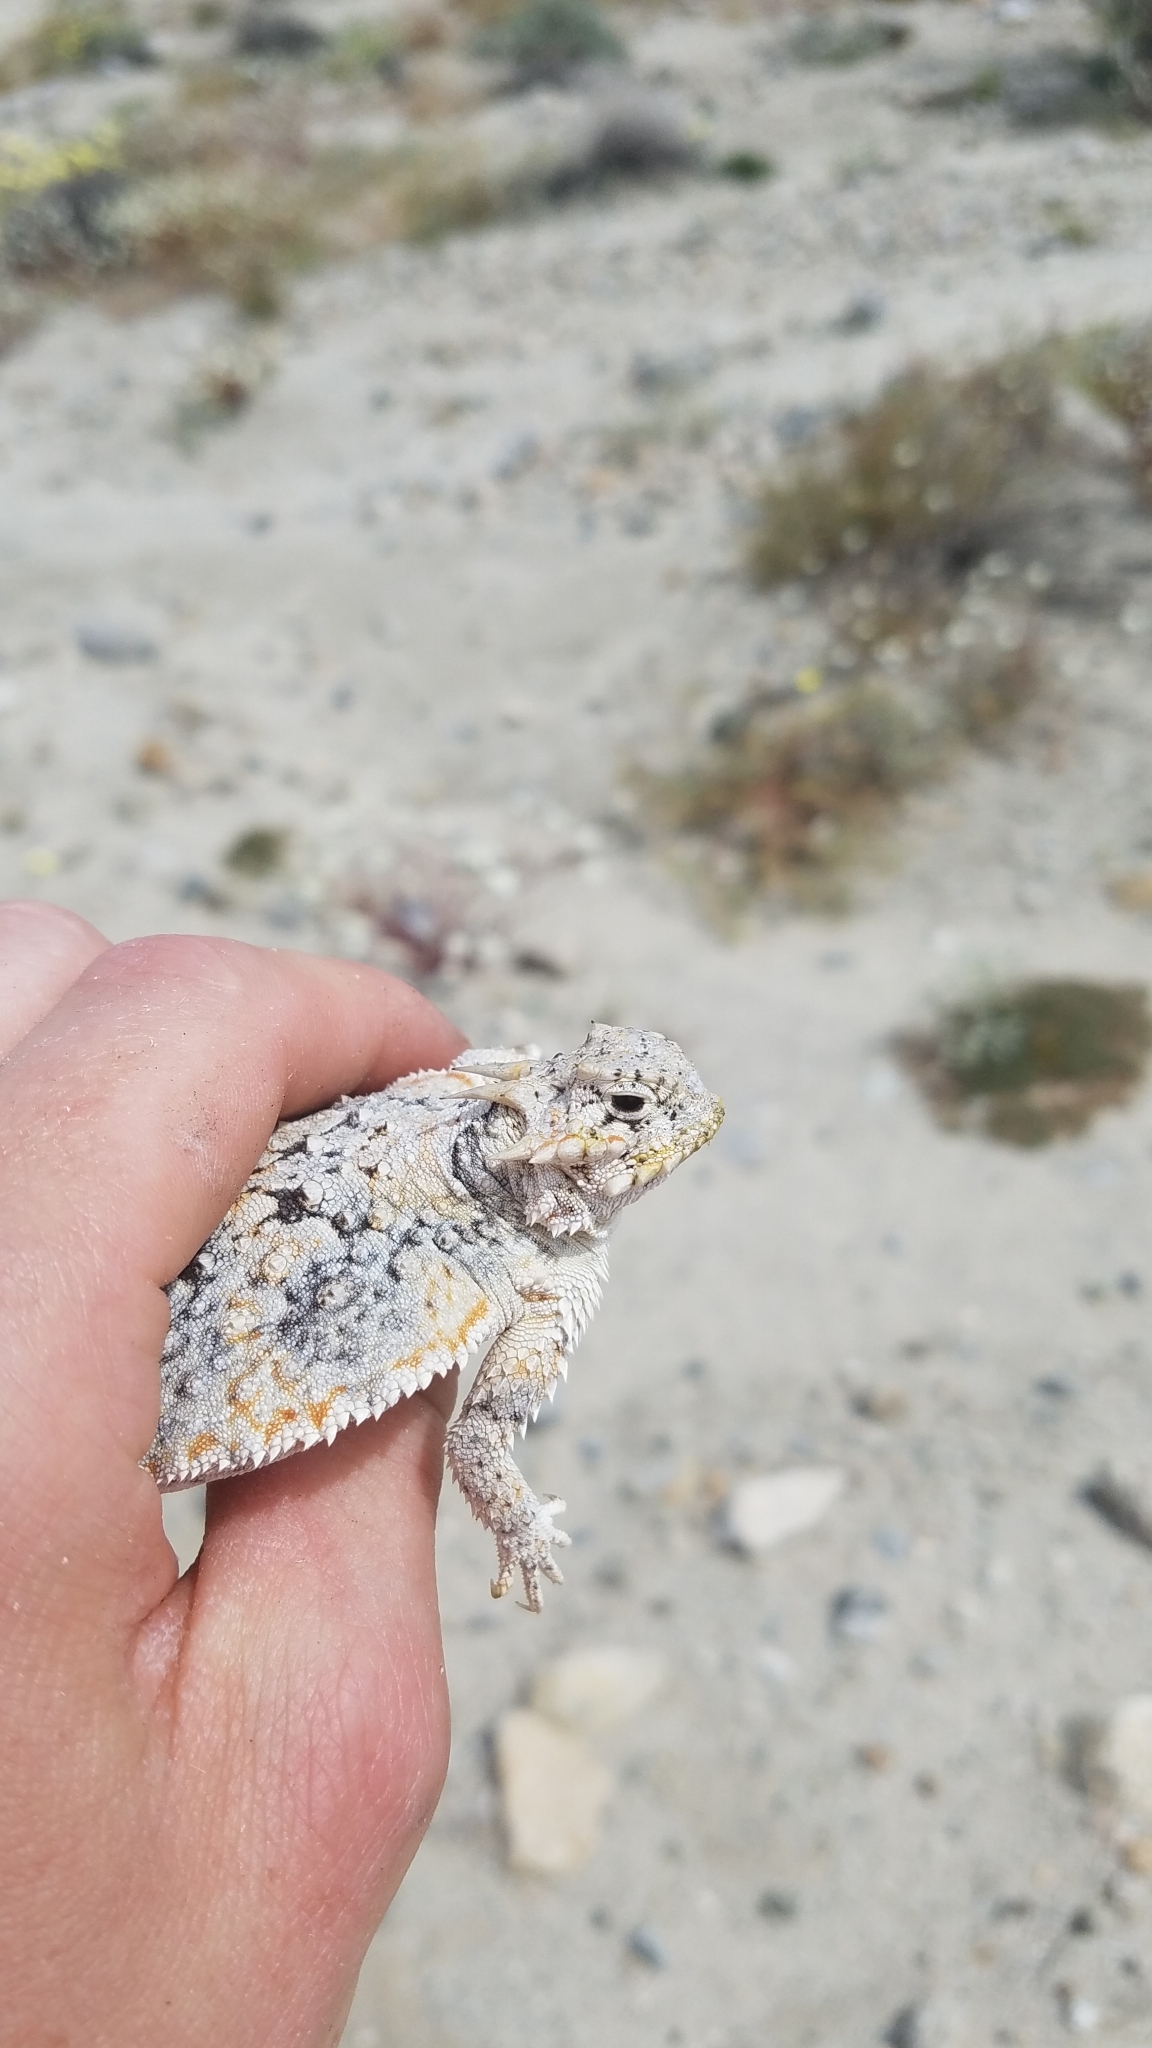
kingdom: Animalia
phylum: Chordata
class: Squamata
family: Phrynosomatidae
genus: Phrynosoma
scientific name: Phrynosoma platyrhinos
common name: Desert horned lizard
